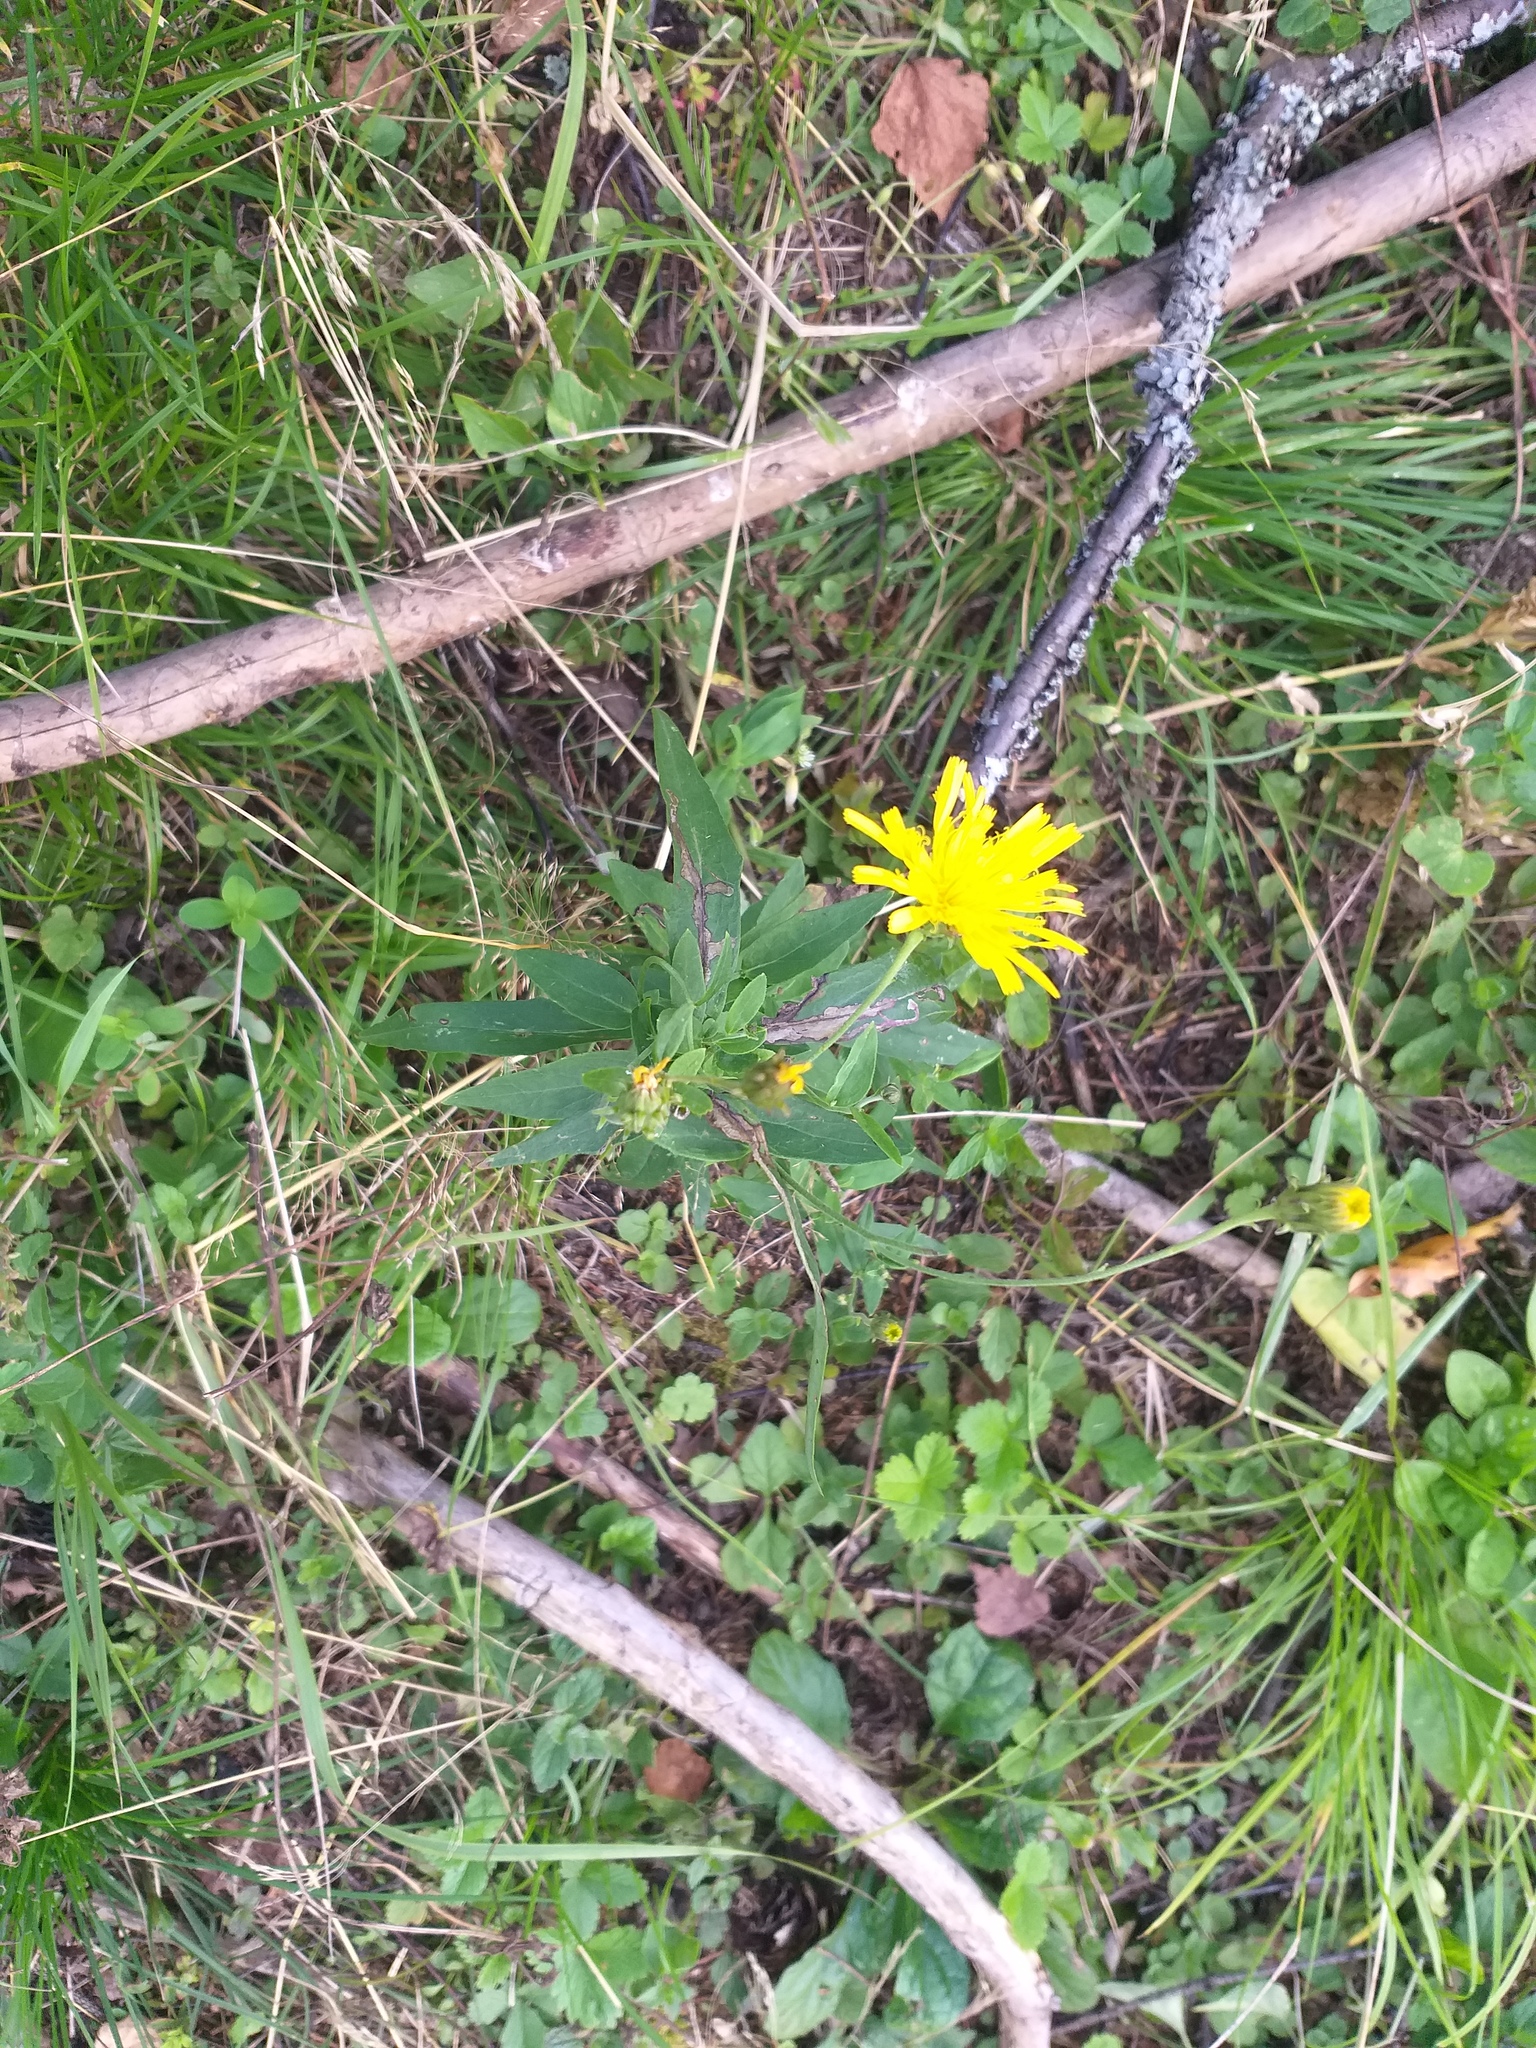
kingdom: Plantae
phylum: Tracheophyta
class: Magnoliopsida
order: Asterales
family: Asteraceae
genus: Hieracium
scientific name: Hieracium umbellatum
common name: Northern hawkweed
